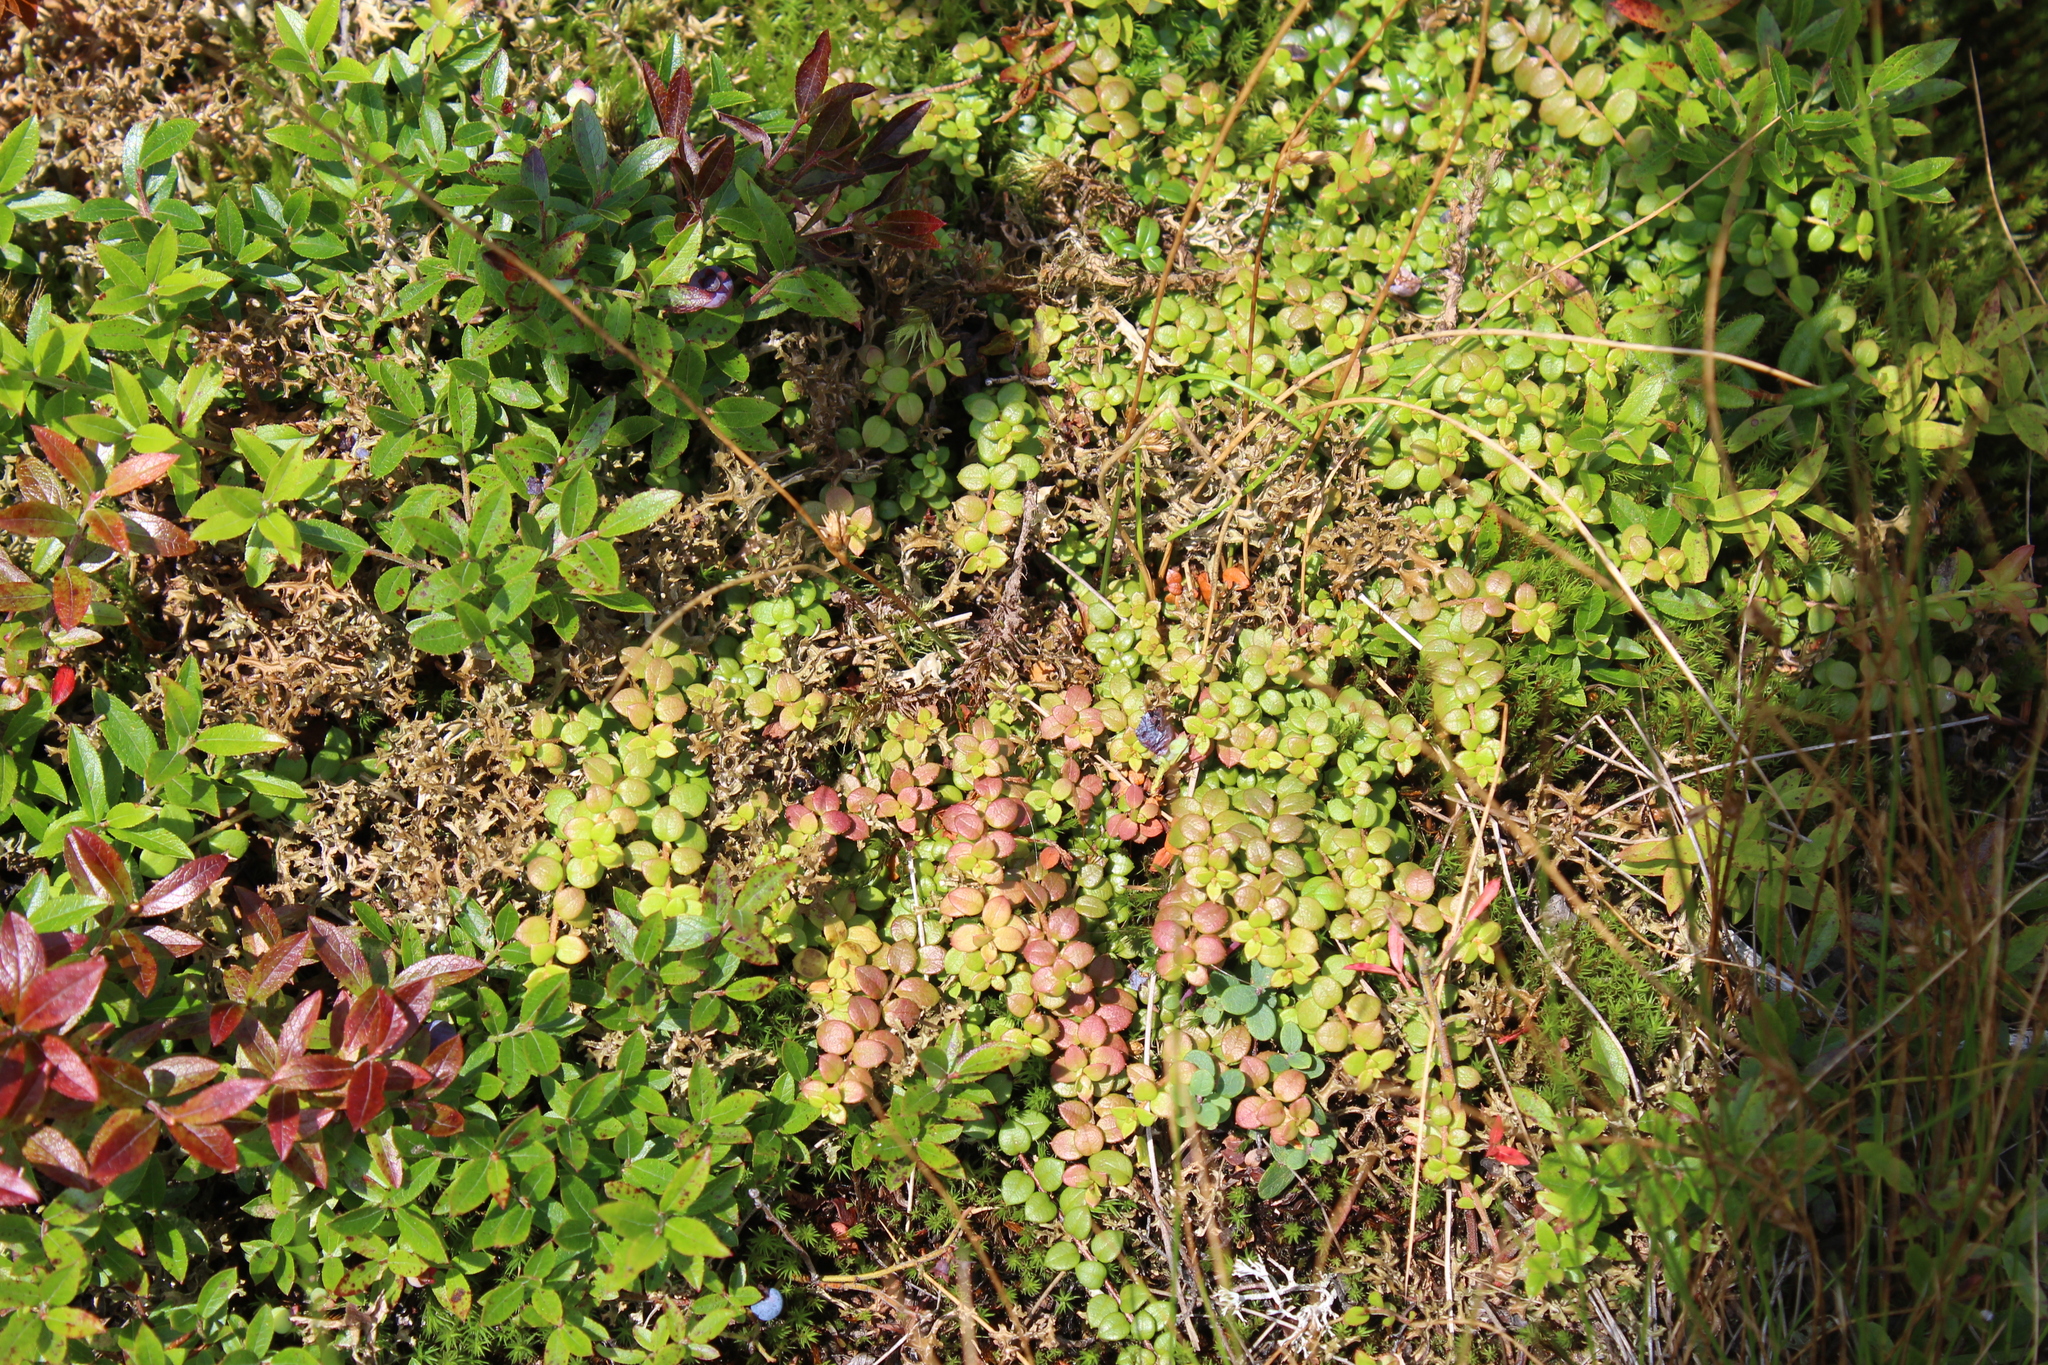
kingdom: Plantae
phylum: Tracheophyta
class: Magnoliopsida
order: Ericales
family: Ericaceae
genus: Gaultheria
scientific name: Gaultheria hispidula
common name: Cancer wintergreen
